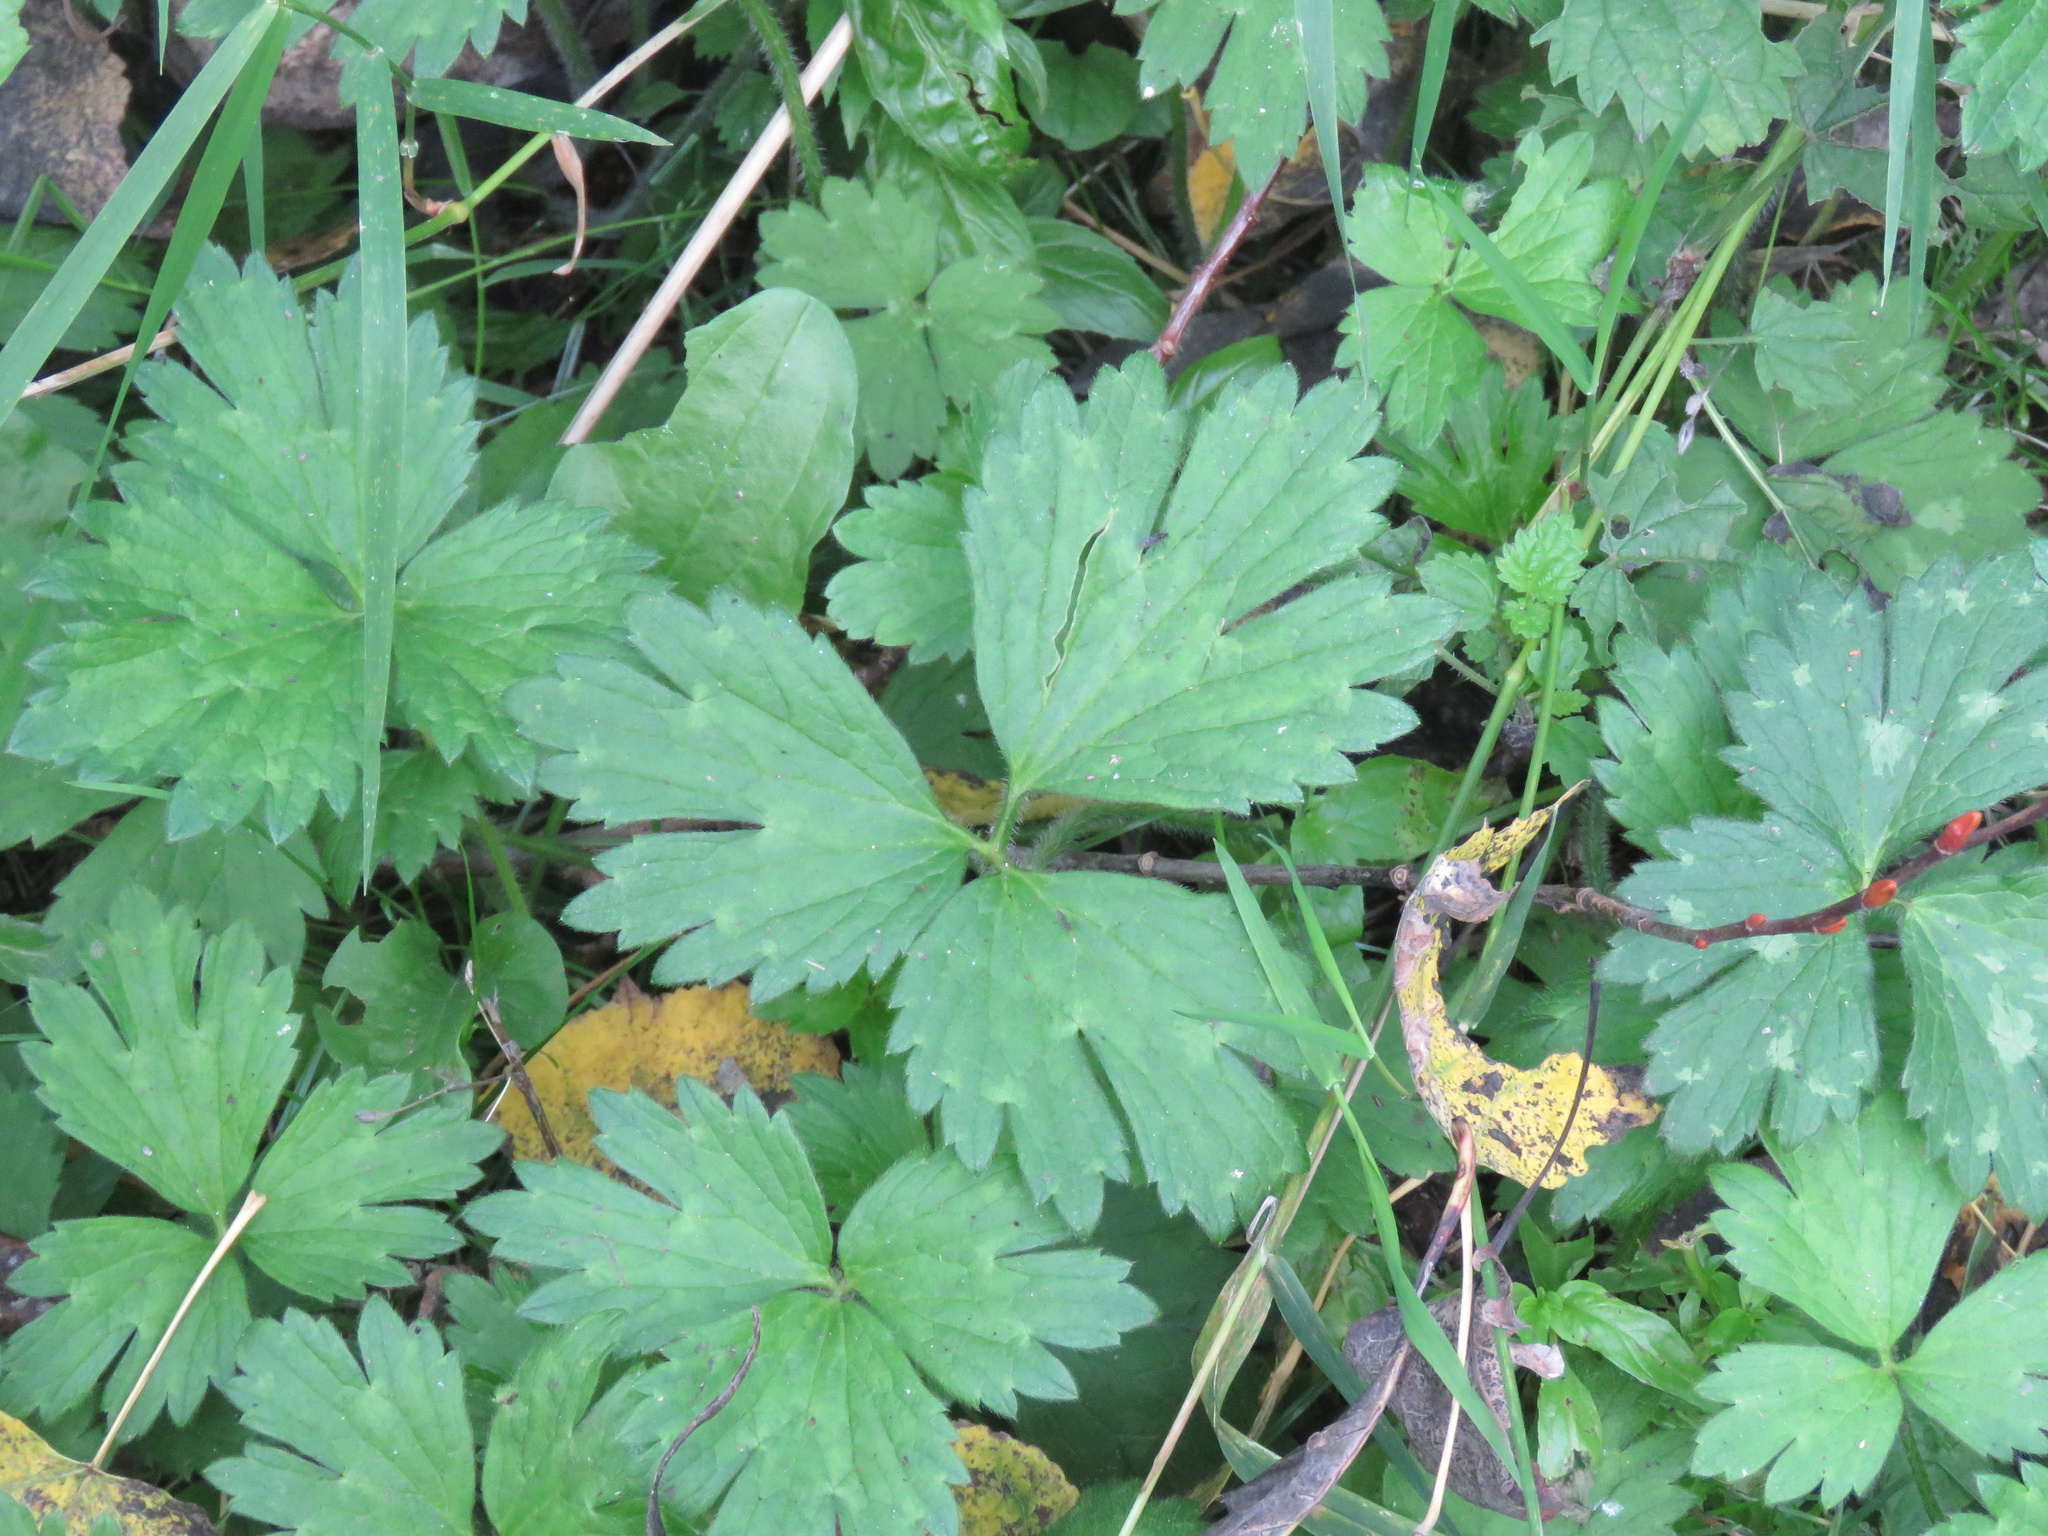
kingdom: Plantae
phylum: Tracheophyta
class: Magnoliopsida
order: Ranunculales
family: Ranunculaceae
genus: Ranunculus
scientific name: Ranunculus repens
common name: Creeping buttercup
